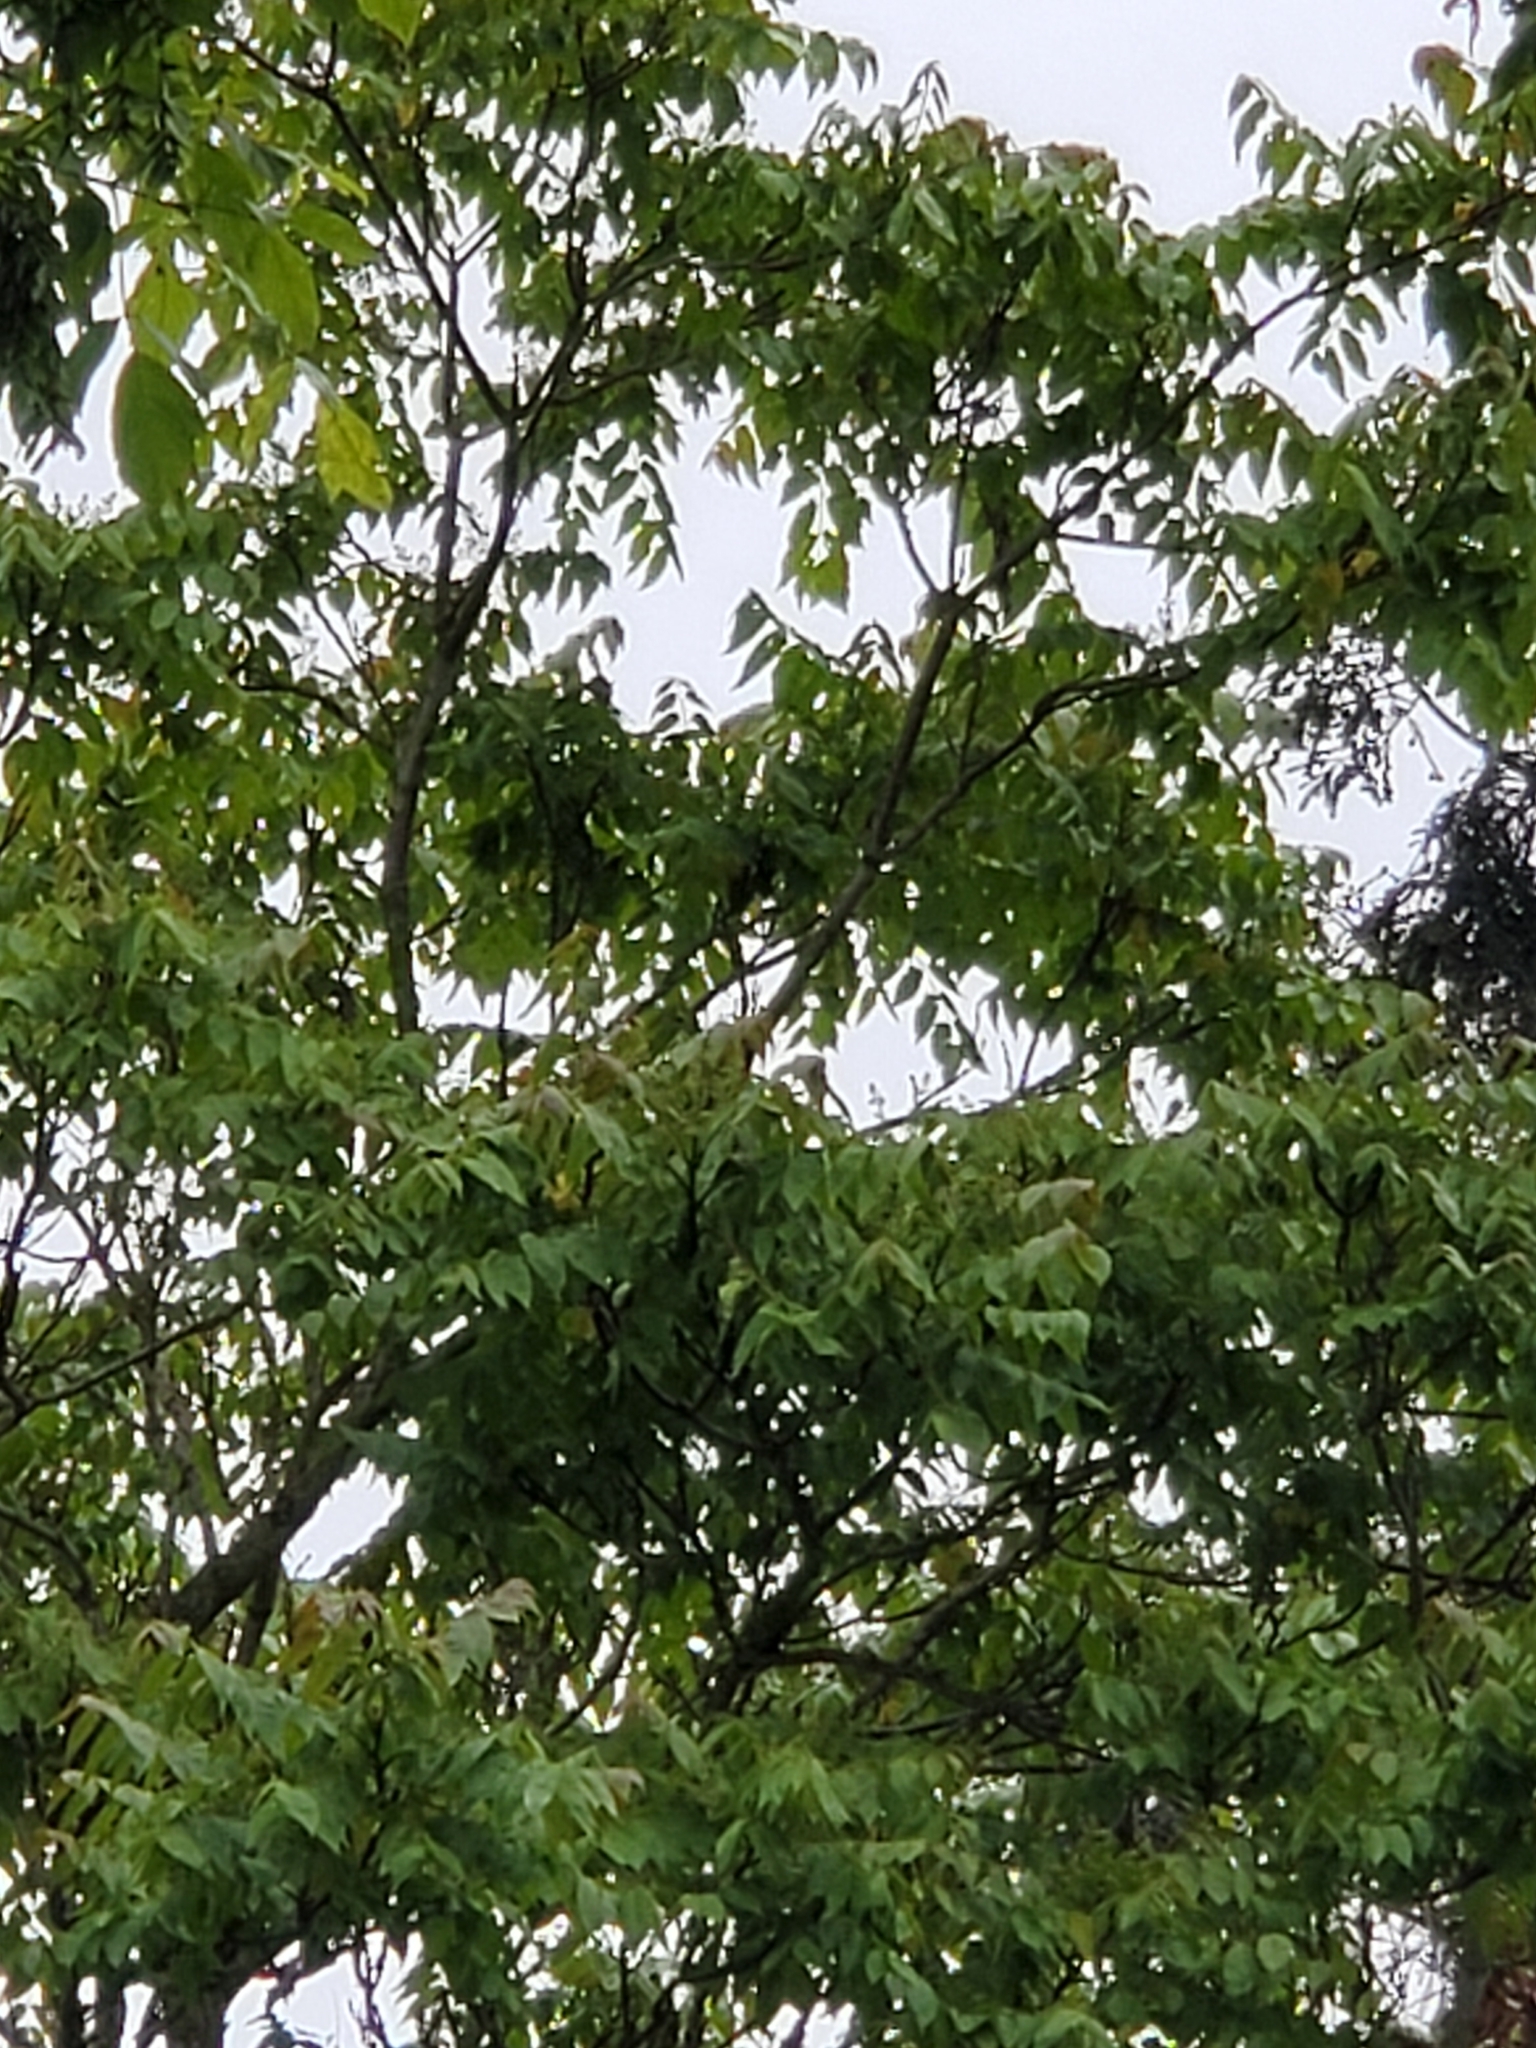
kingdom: Plantae
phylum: Tracheophyta
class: Magnoliopsida
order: Sapindales
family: Simaroubaceae
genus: Ailanthus
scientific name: Ailanthus altissima
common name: Tree-of-heaven
